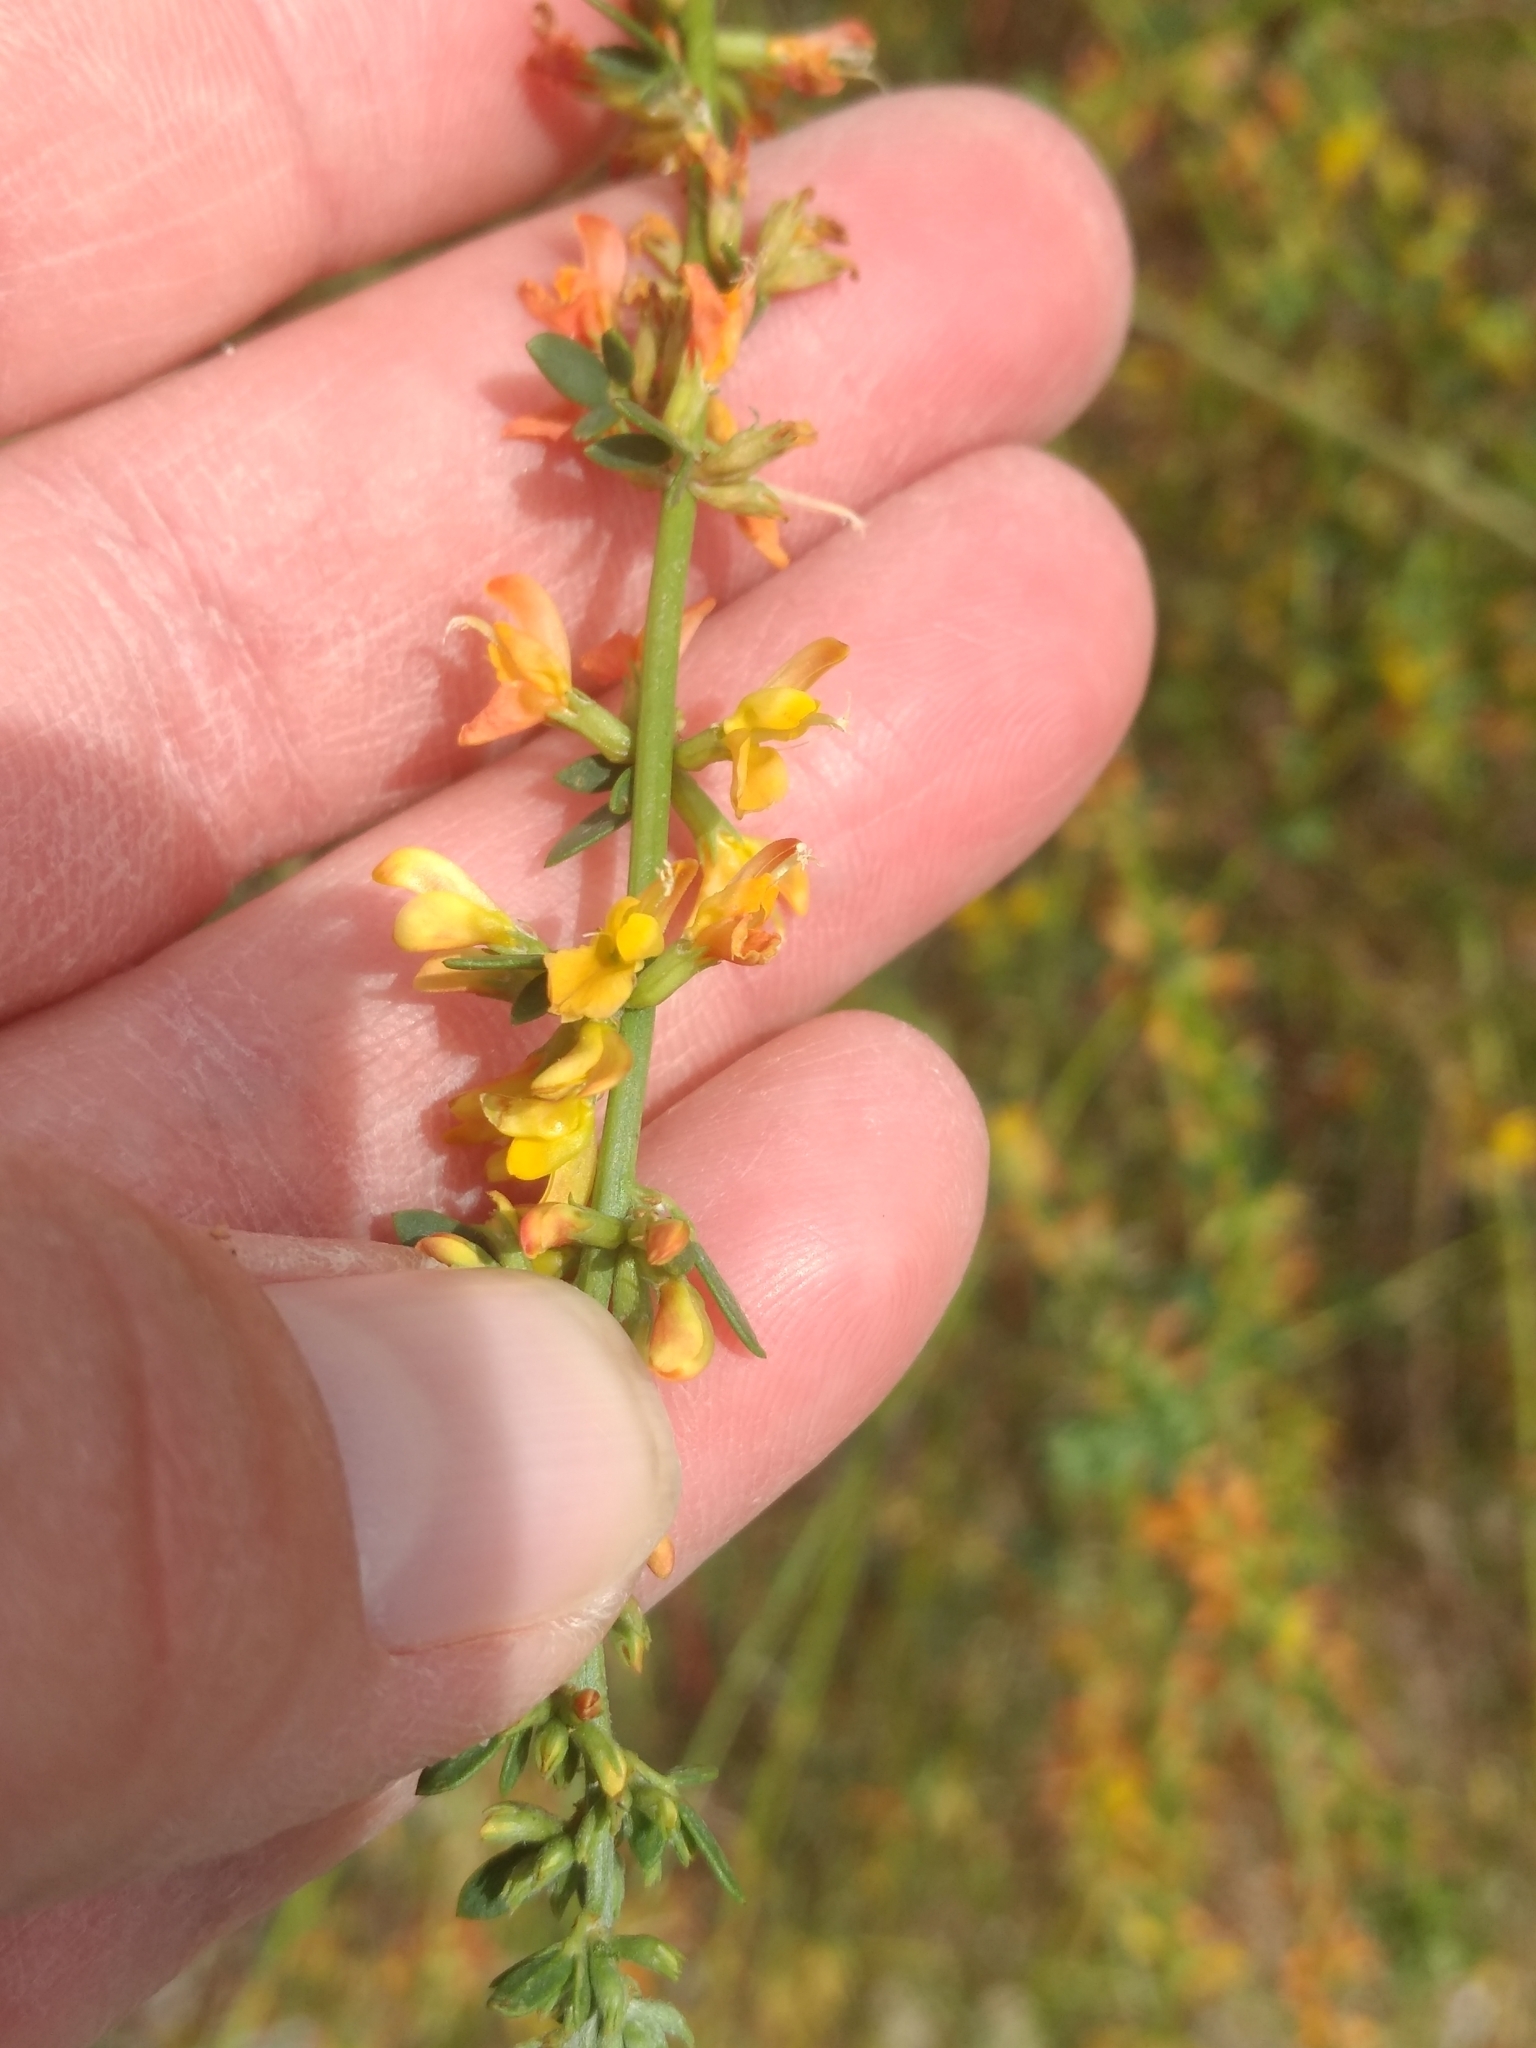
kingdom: Plantae
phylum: Tracheophyta
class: Magnoliopsida
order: Fabales
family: Fabaceae
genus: Acmispon
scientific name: Acmispon glaber
